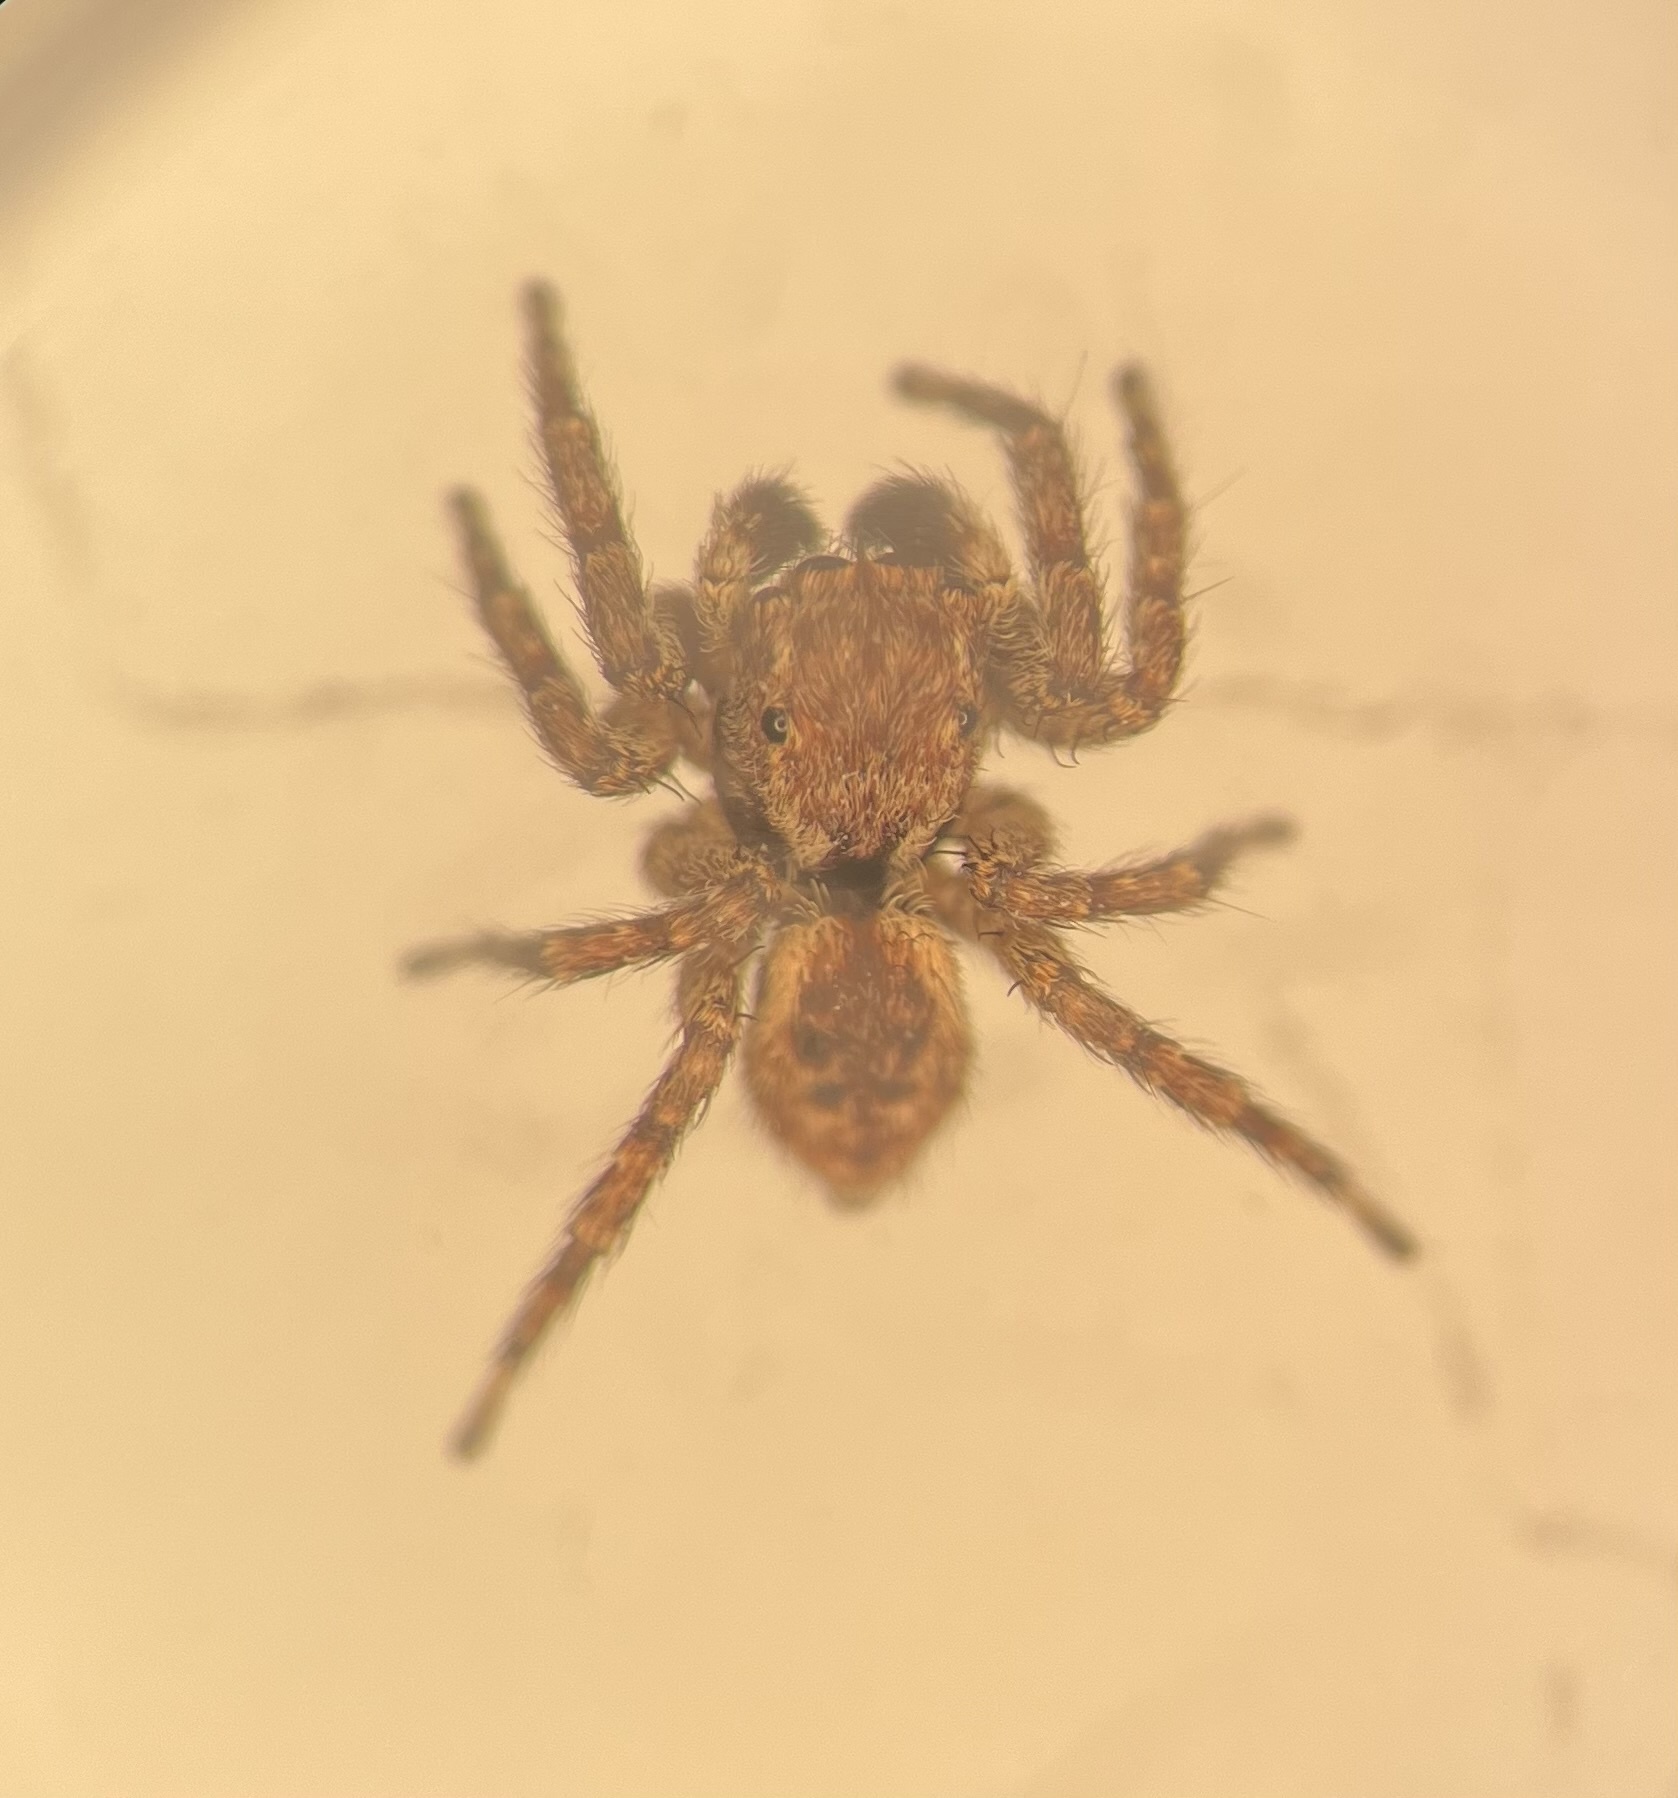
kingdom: Animalia
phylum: Arthropoda
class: Arachnida
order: Araneae
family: Salticidae
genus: Mexigonus
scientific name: Mexigonus minutus
